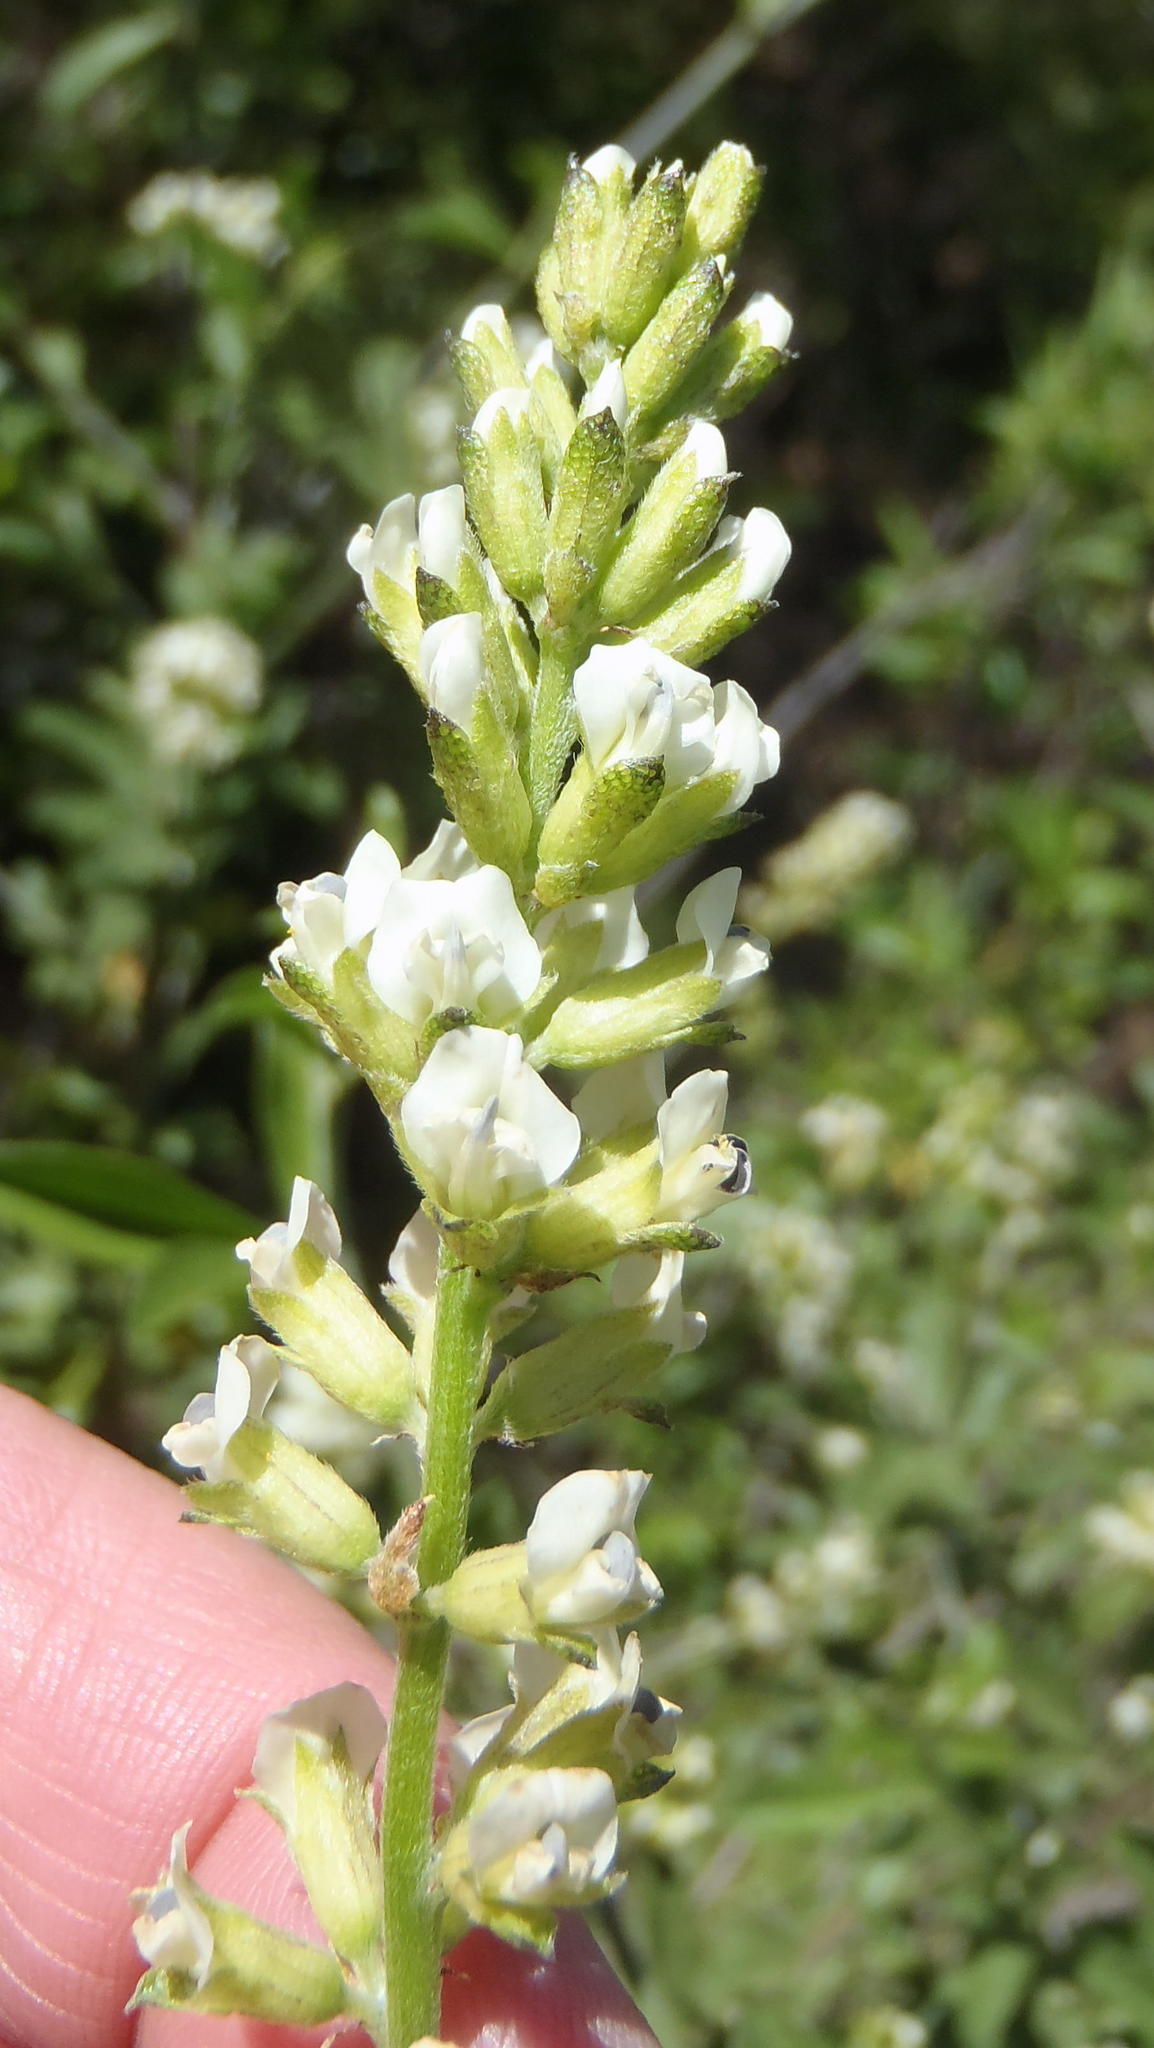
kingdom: Plantae
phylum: Tracheophyta
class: Magnoliopsida
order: Fabales
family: Fabaceae
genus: Psoralea
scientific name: Psoralea striata
